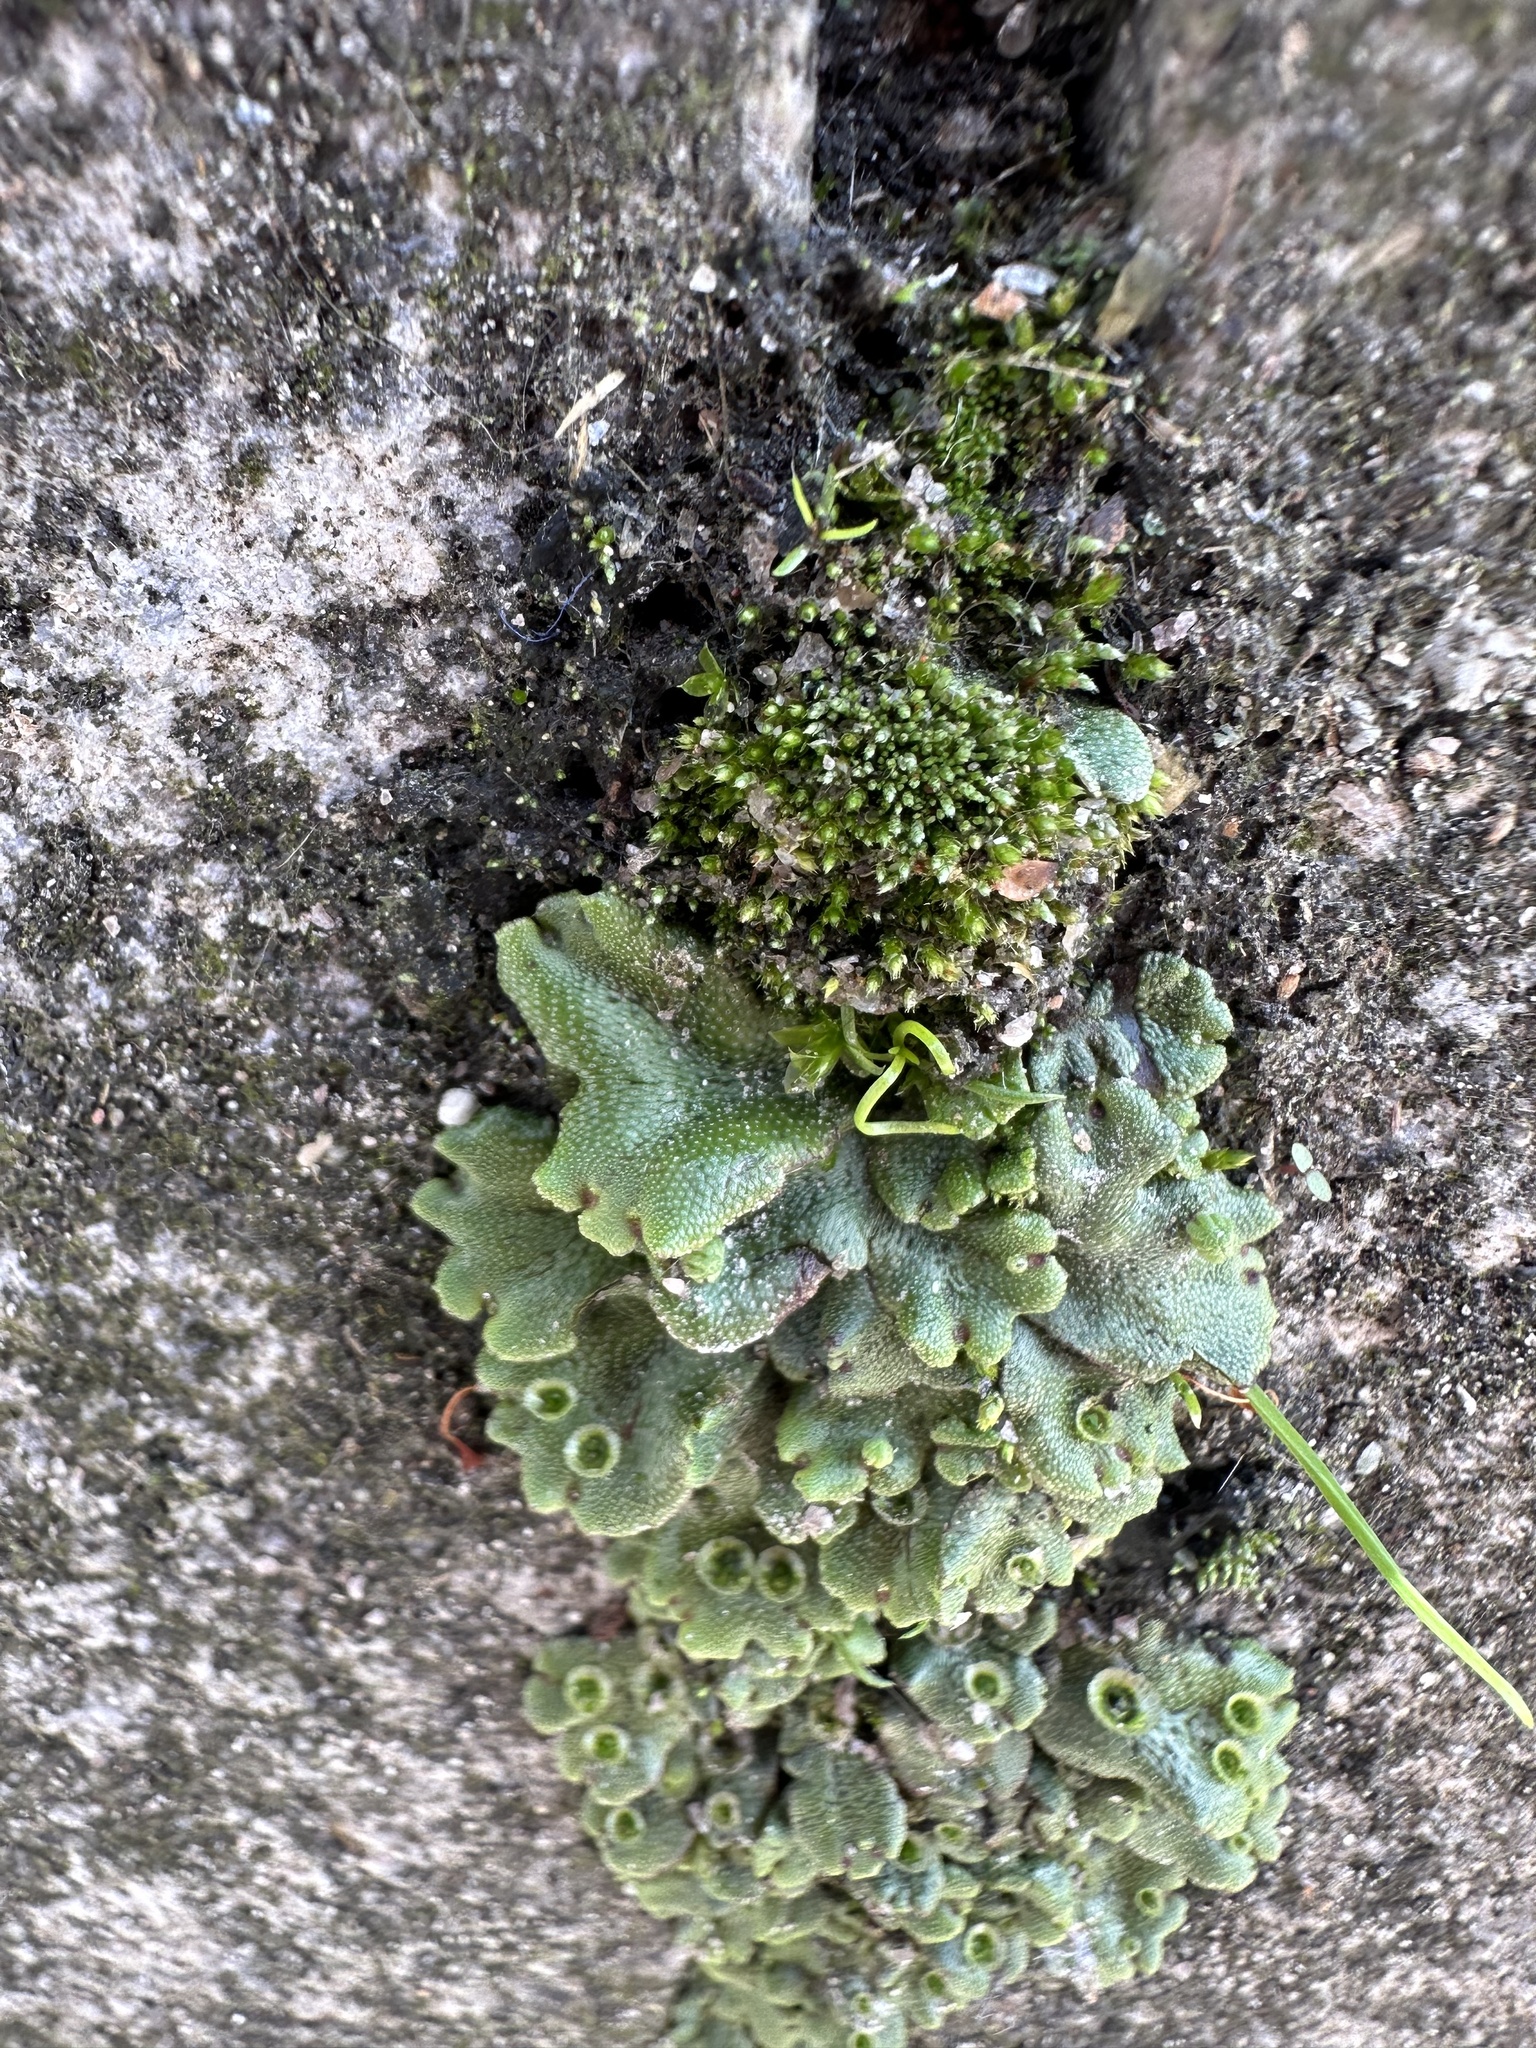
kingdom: Plantae
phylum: Marchantiophyta
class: Marchantiopsida
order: Marchantiales
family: Marchantiaceae
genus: Marchantia
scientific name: Marchantia polymorpha
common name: Common liverwort
